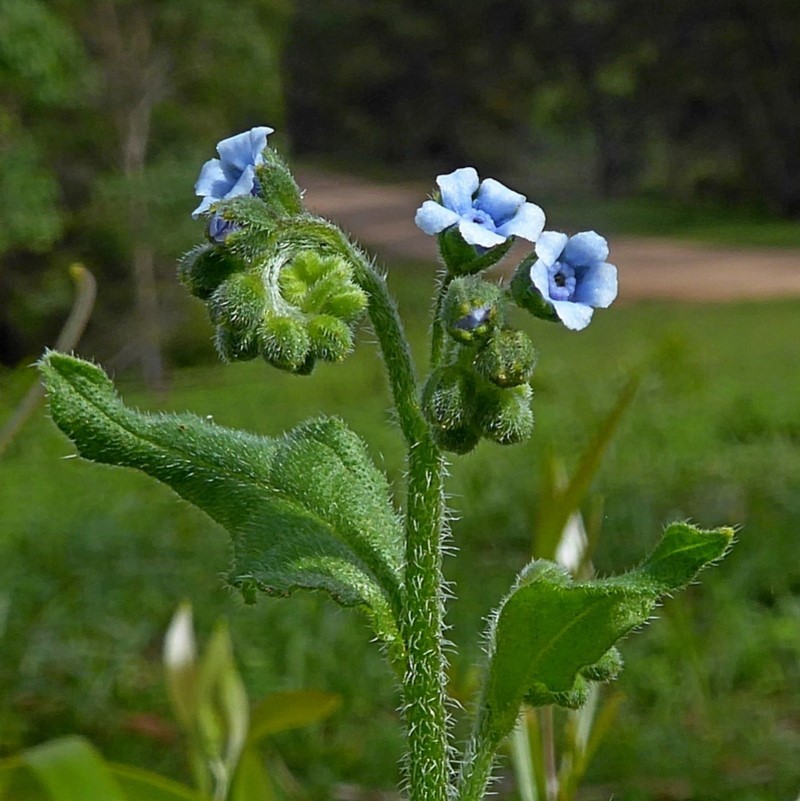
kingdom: Plantae
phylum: Tracheophyta
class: Magnoliopsida
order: Boraginales
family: Boraginaceae
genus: Cynoglossum
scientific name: Cynoglossum australe
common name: Australian hound's-tongue
